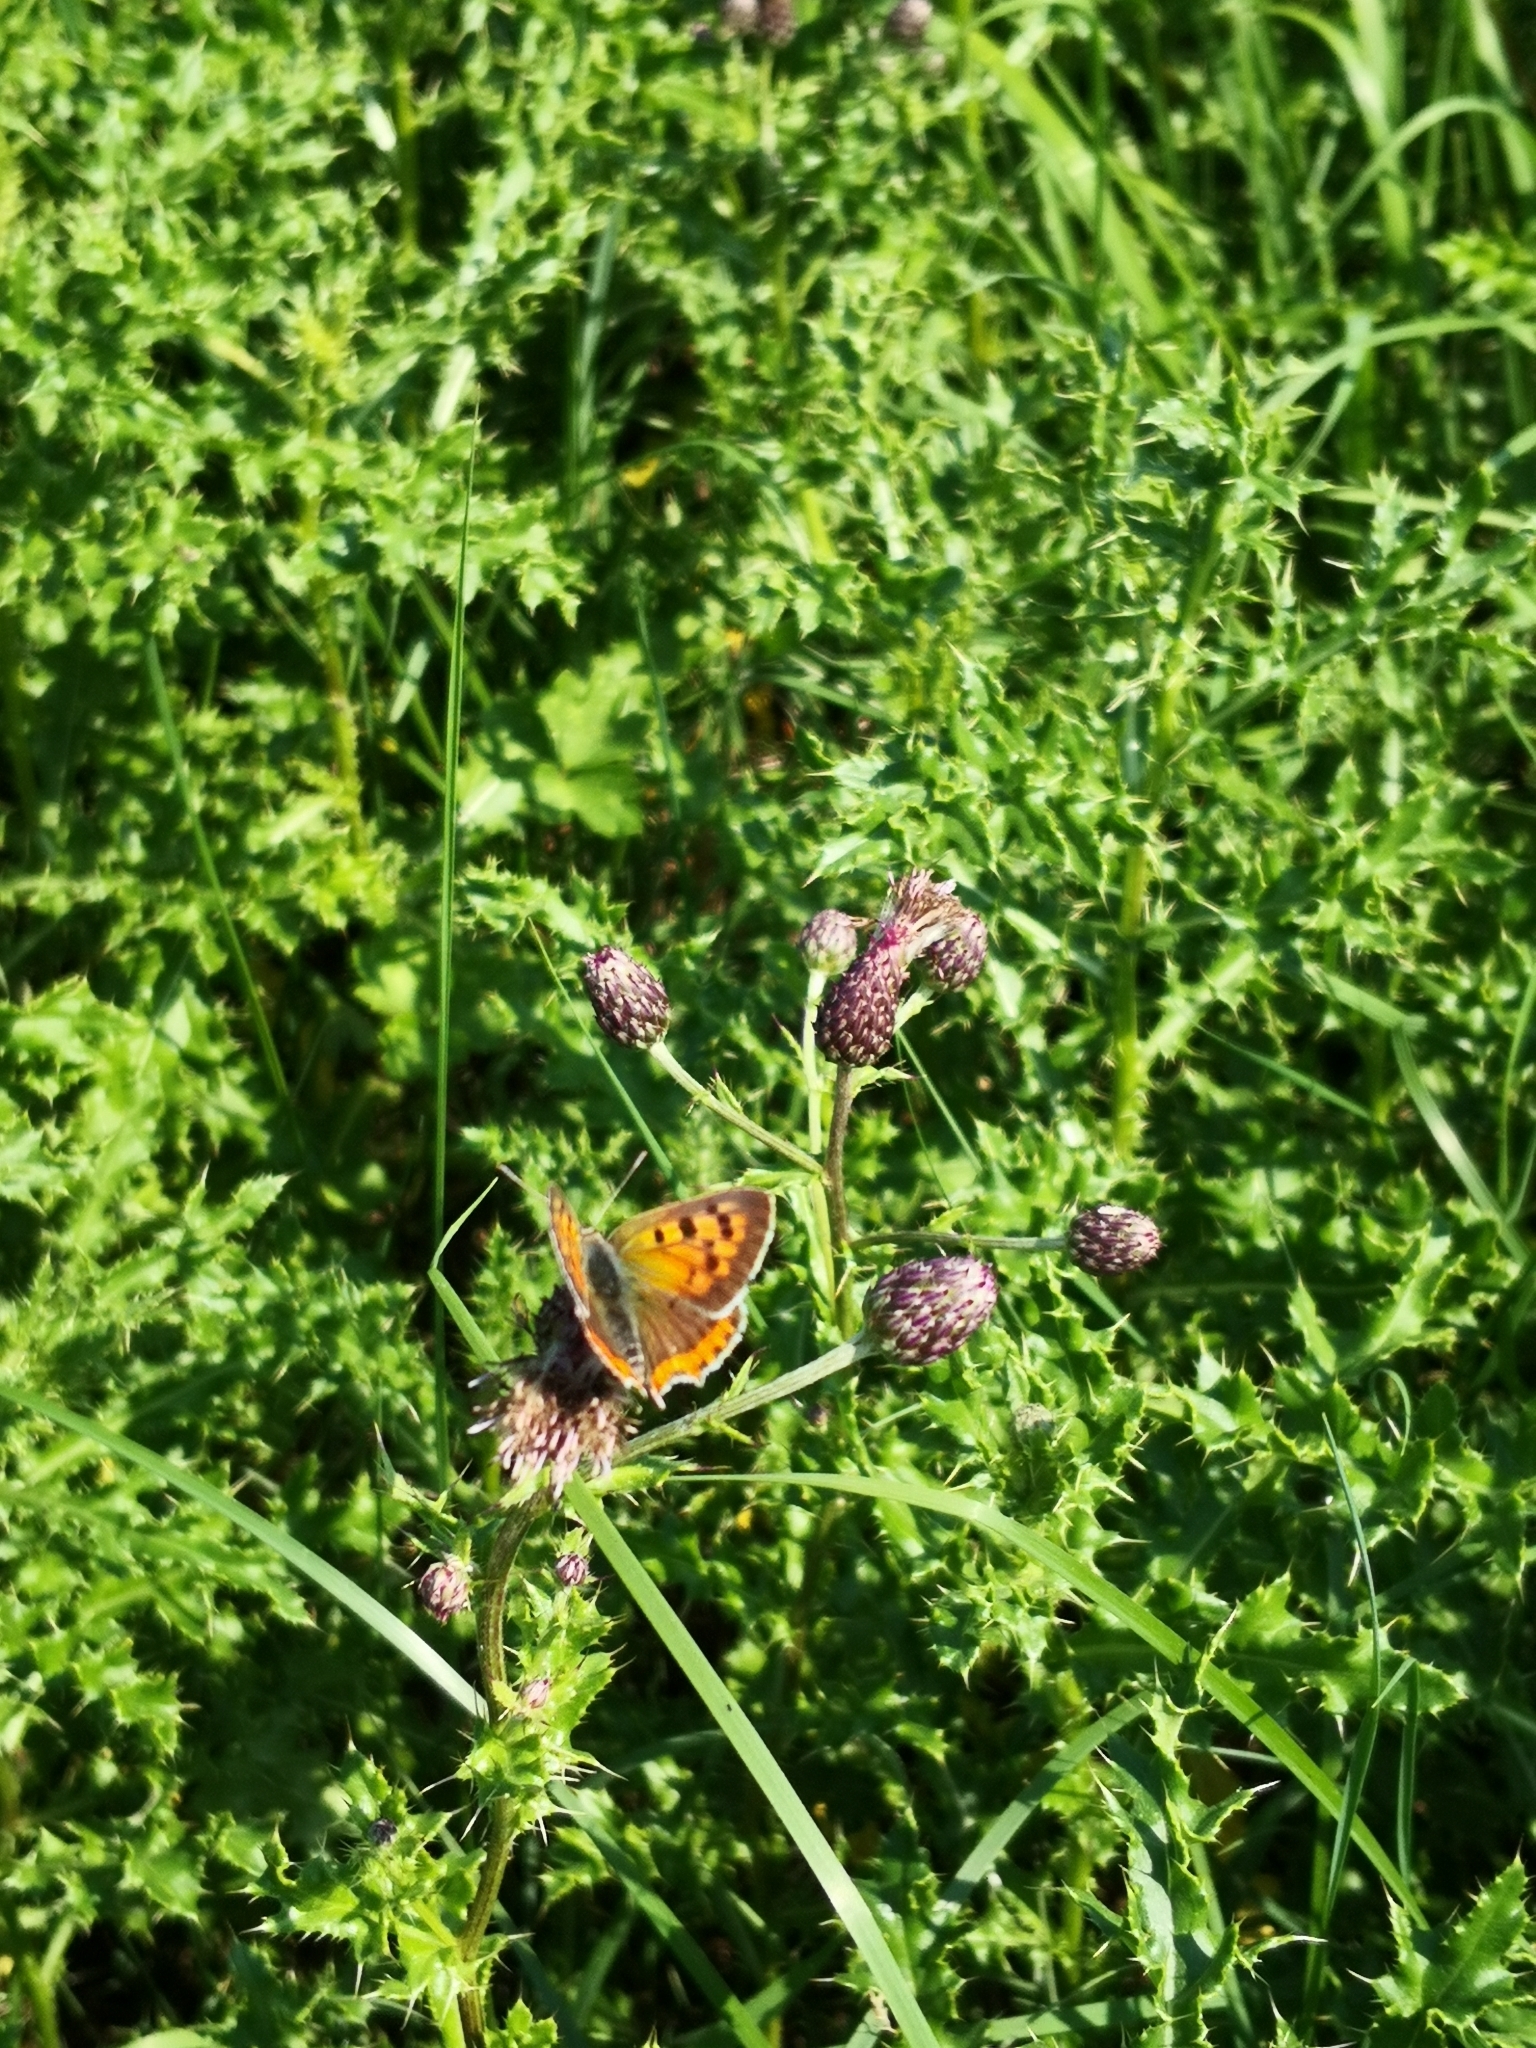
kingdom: Animalia
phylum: Arthropoda
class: Insecta
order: Lepidoptera
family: Lycaenidae
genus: Lycaena
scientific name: Lycaena phlaeas
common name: Small copper
